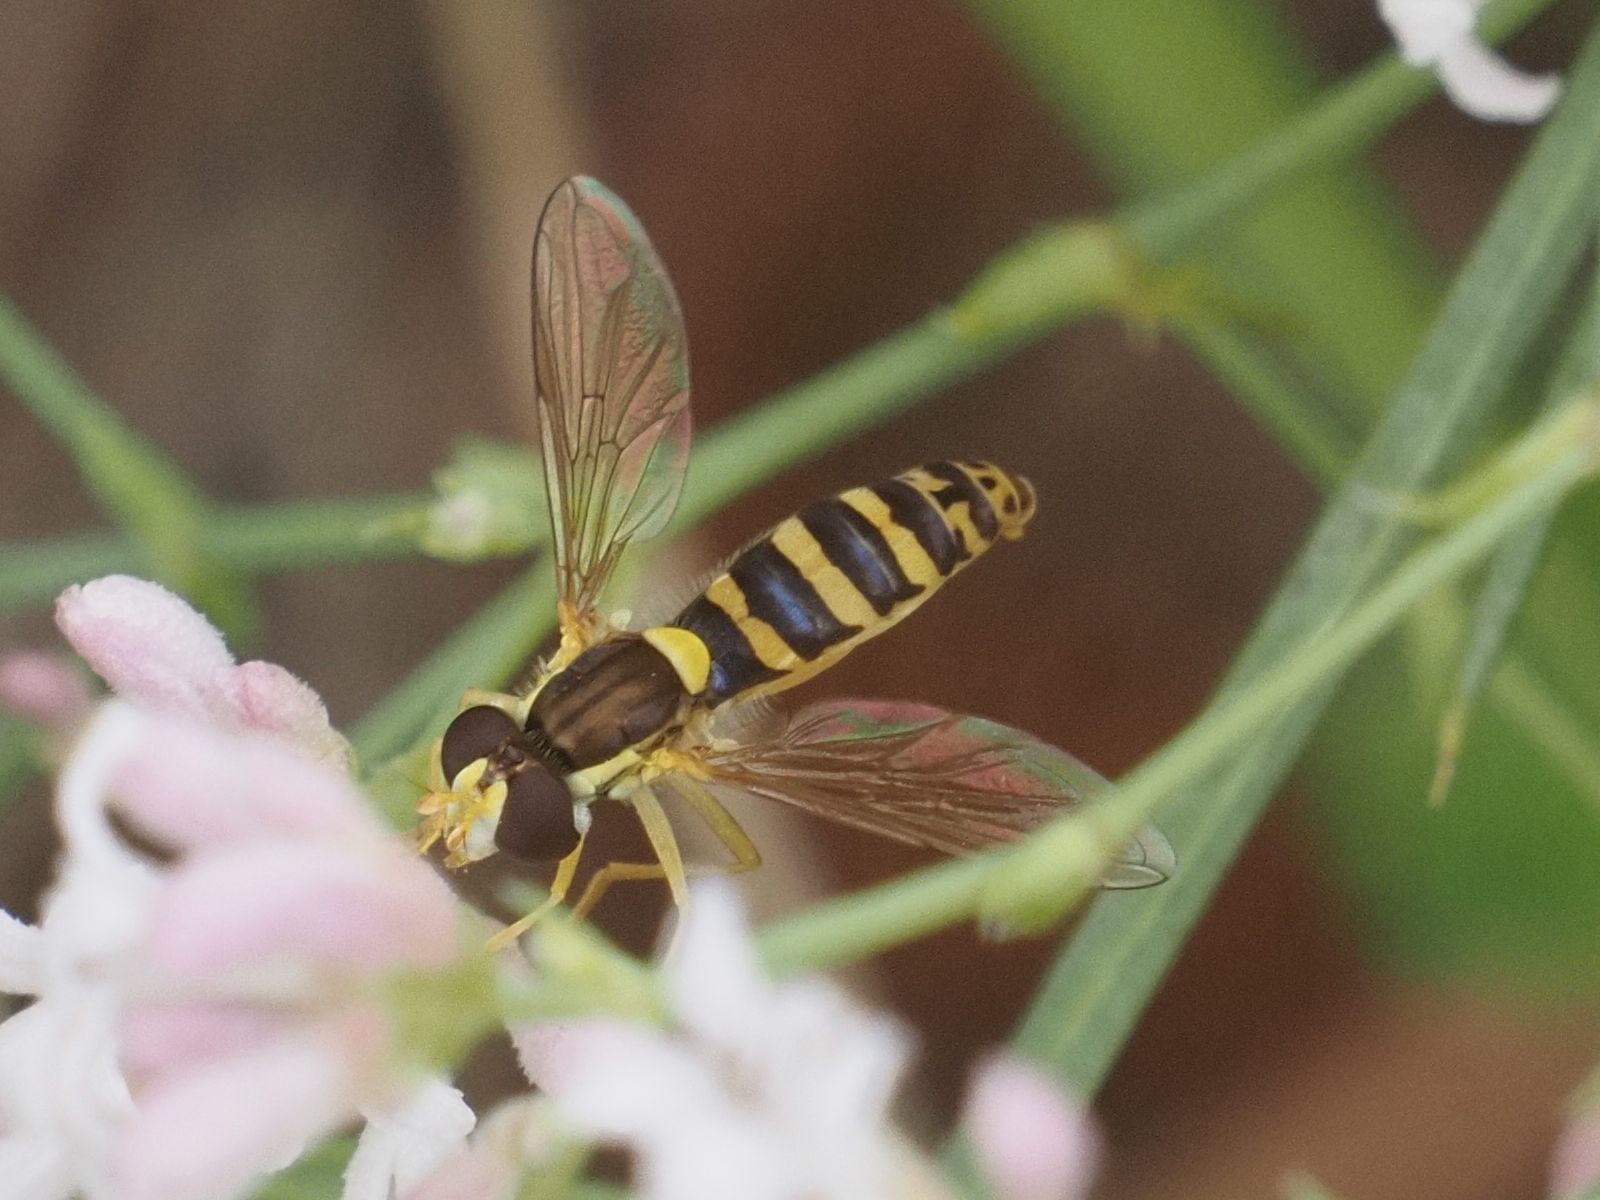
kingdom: Animalia
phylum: Arthropoda
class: Insecta
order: Diptera
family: Syrphidae
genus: Sphaerophoria
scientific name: Sphaerophoria
